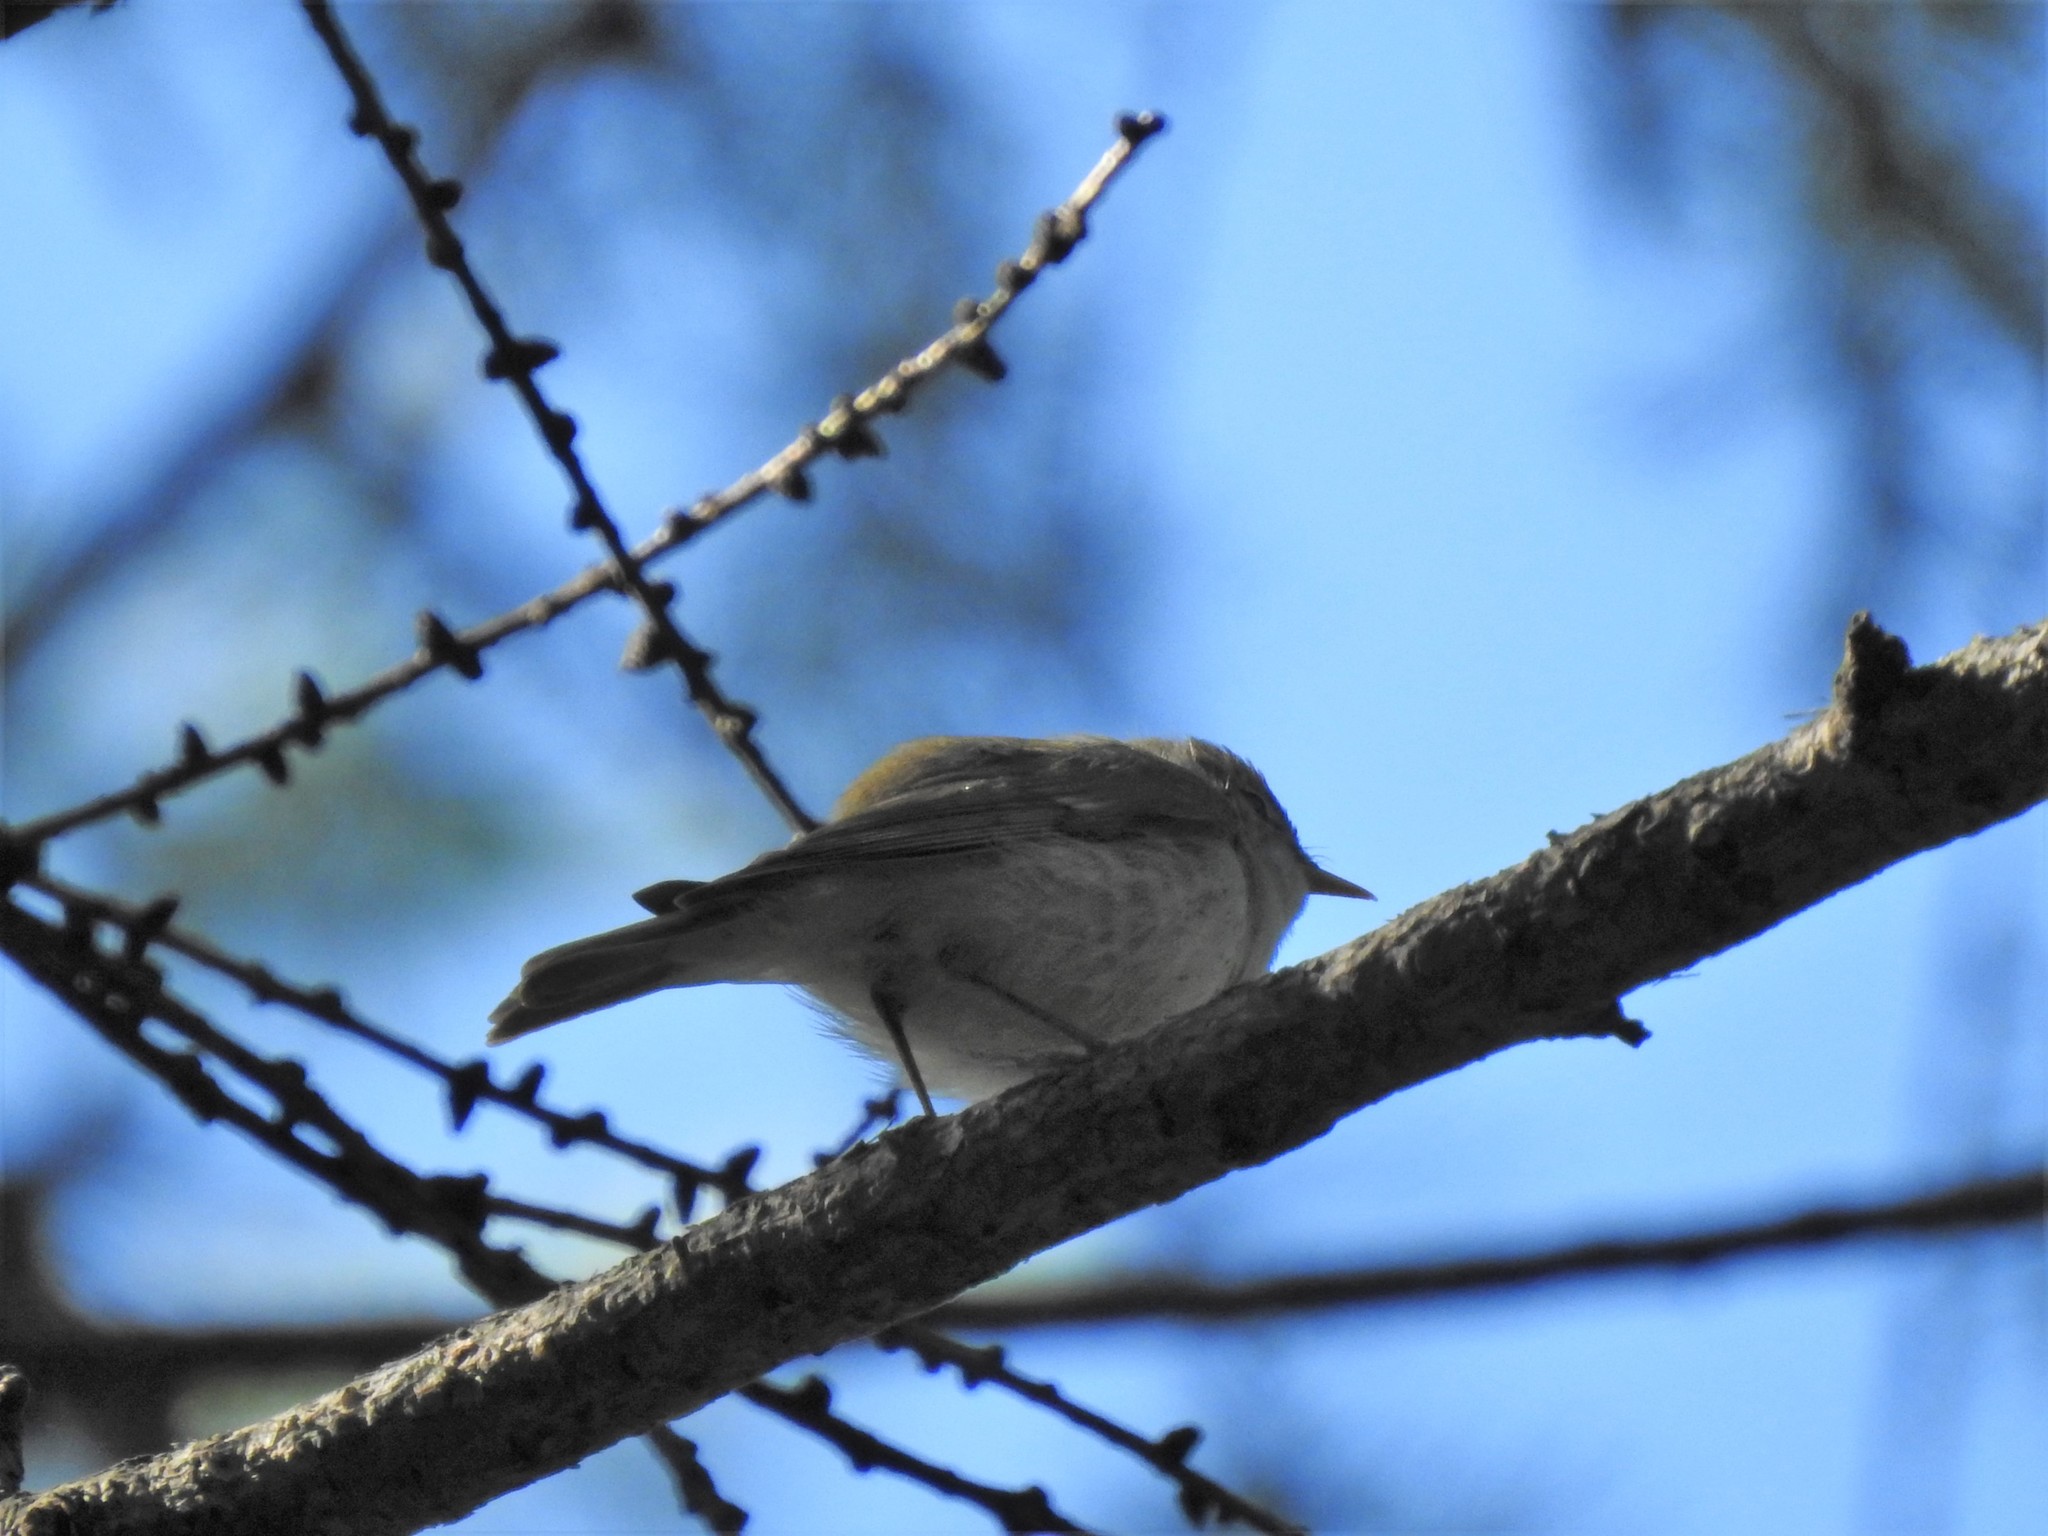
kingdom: Animalia
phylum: Chordata
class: Aves
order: Passeriformes
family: Muscicapidae
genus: Muscicapa
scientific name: Muscicapa striata
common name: Spotted flycatcher
